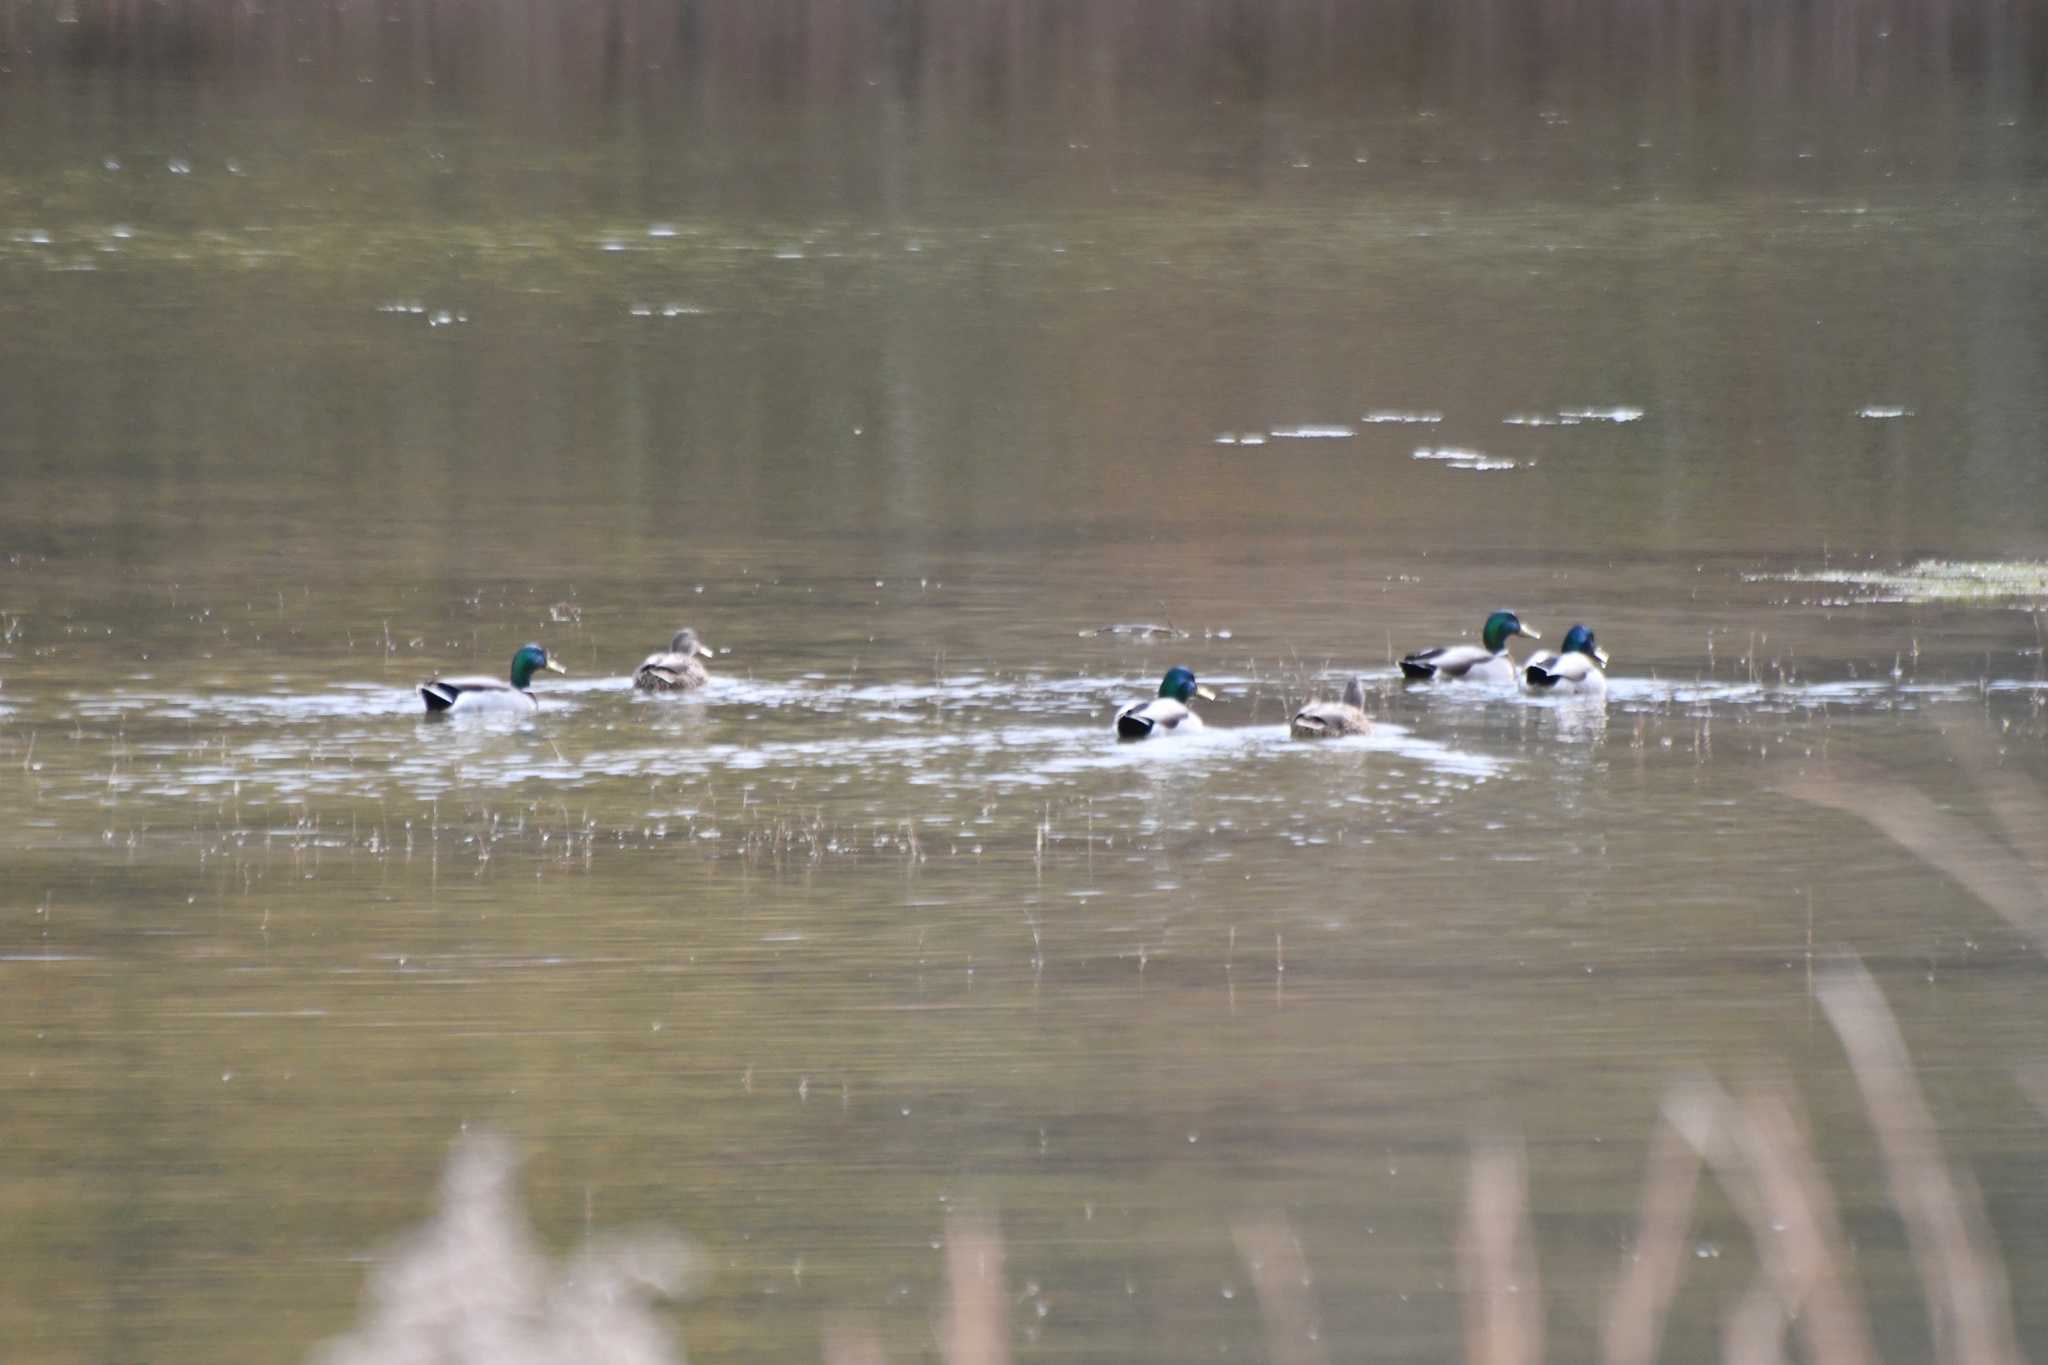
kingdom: Animalia
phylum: Chordata
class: Aves
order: Anseriformes
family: Anatidae
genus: Anas
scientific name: Anas platyrhynchos
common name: Mallard
